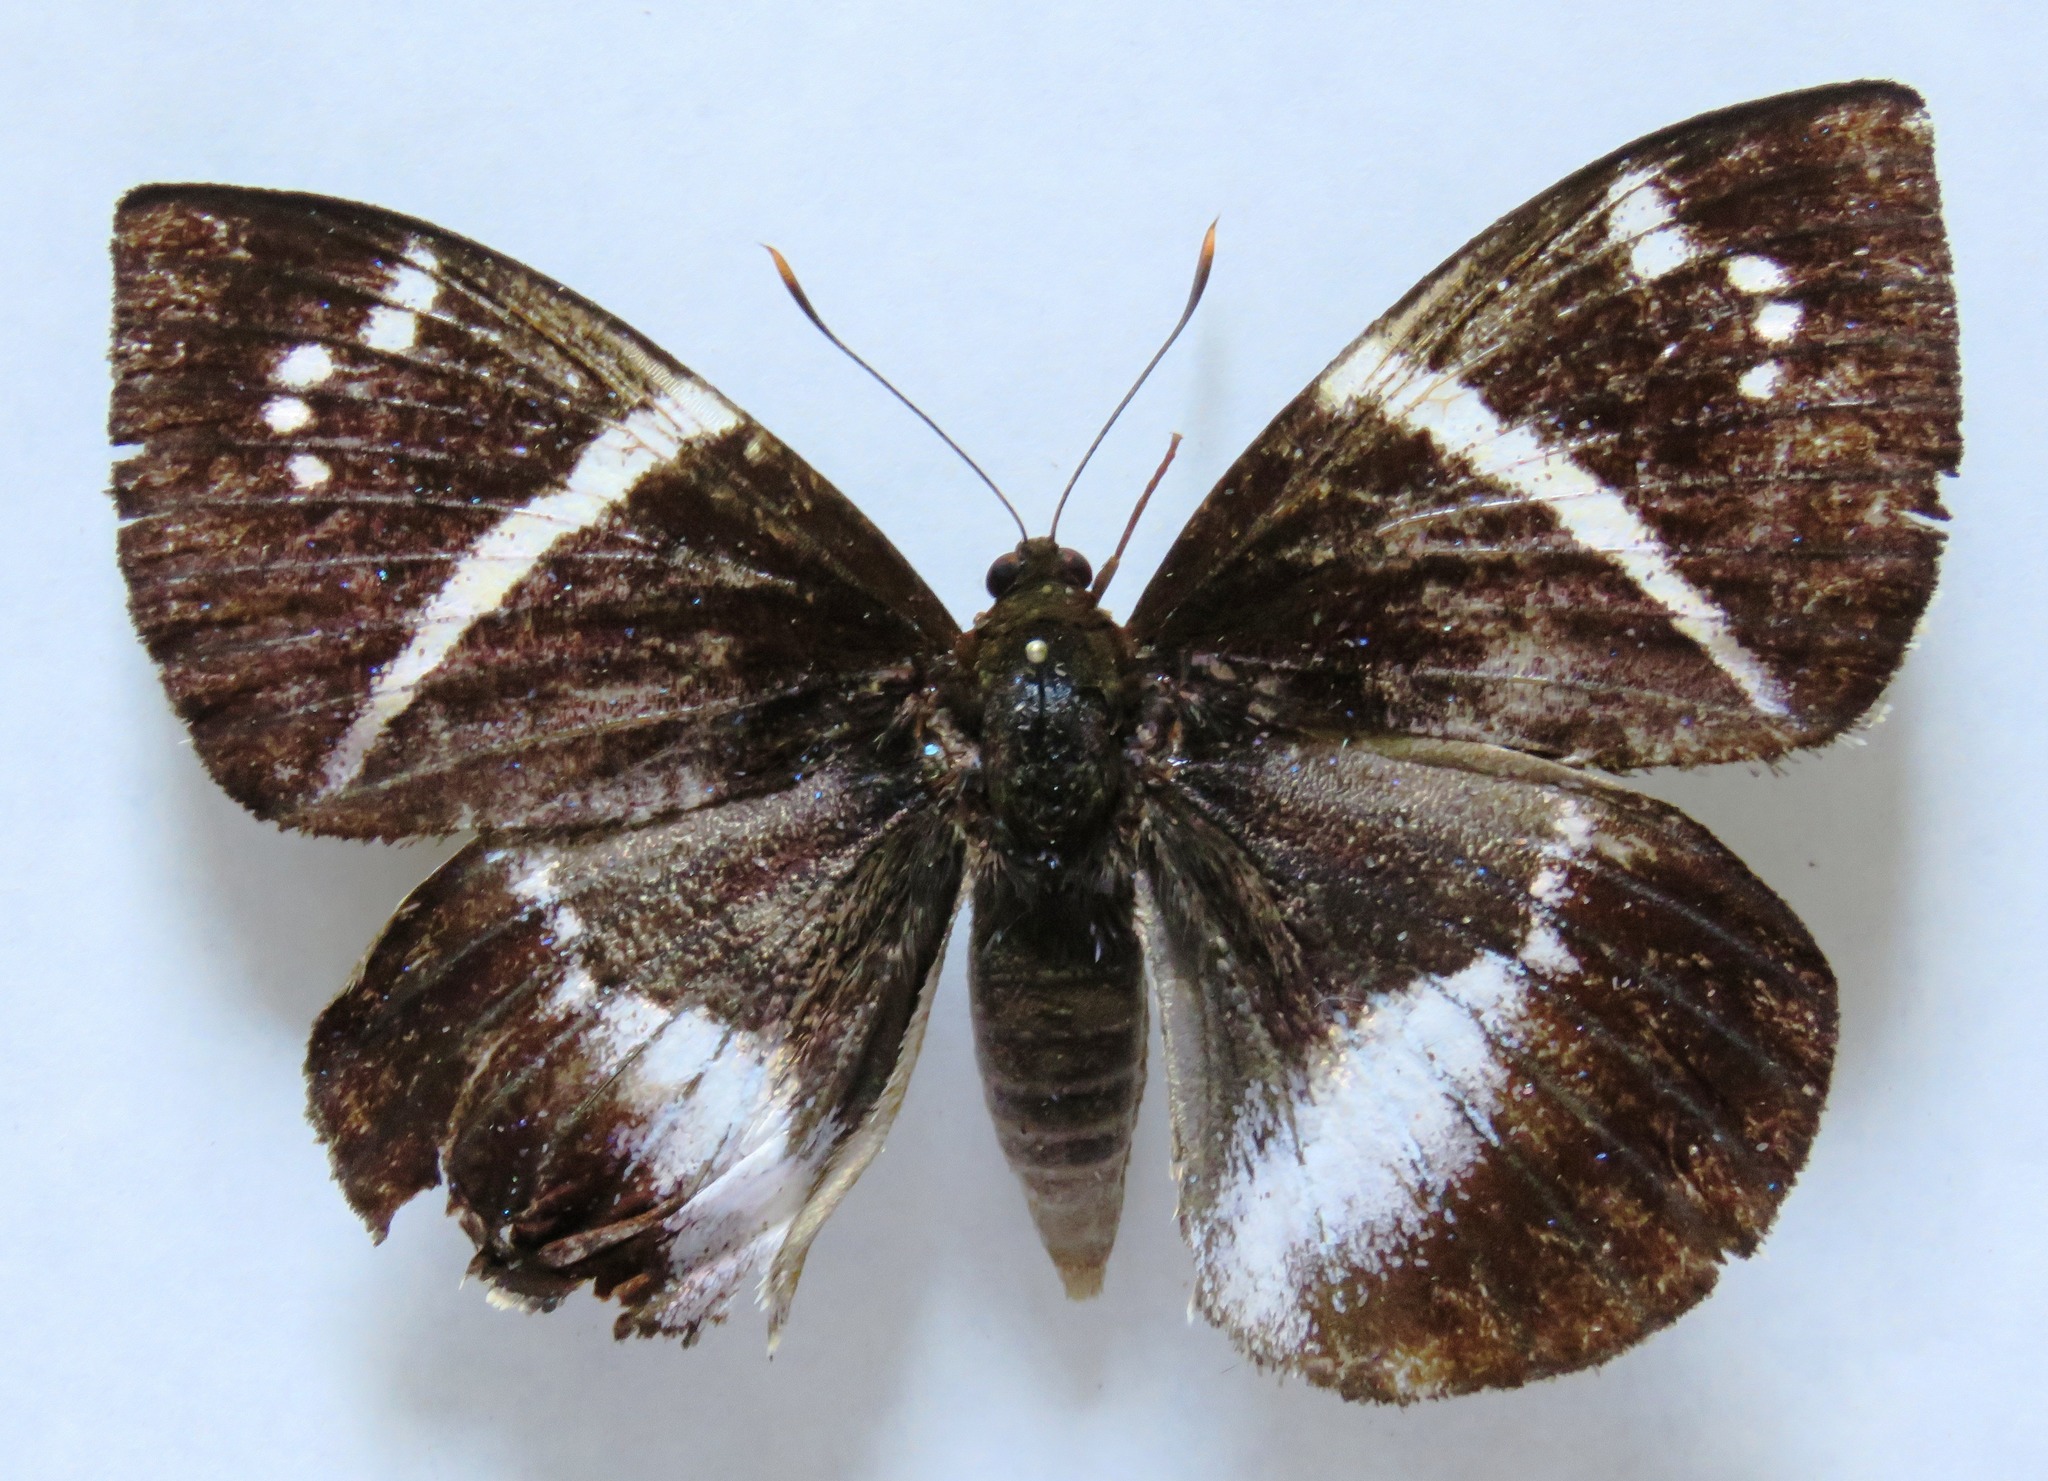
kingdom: Animalia
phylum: Arthropoda
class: Insecta
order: Lepidoptera
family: Castniidae
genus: Castniomera
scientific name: Castniomera atymnius
